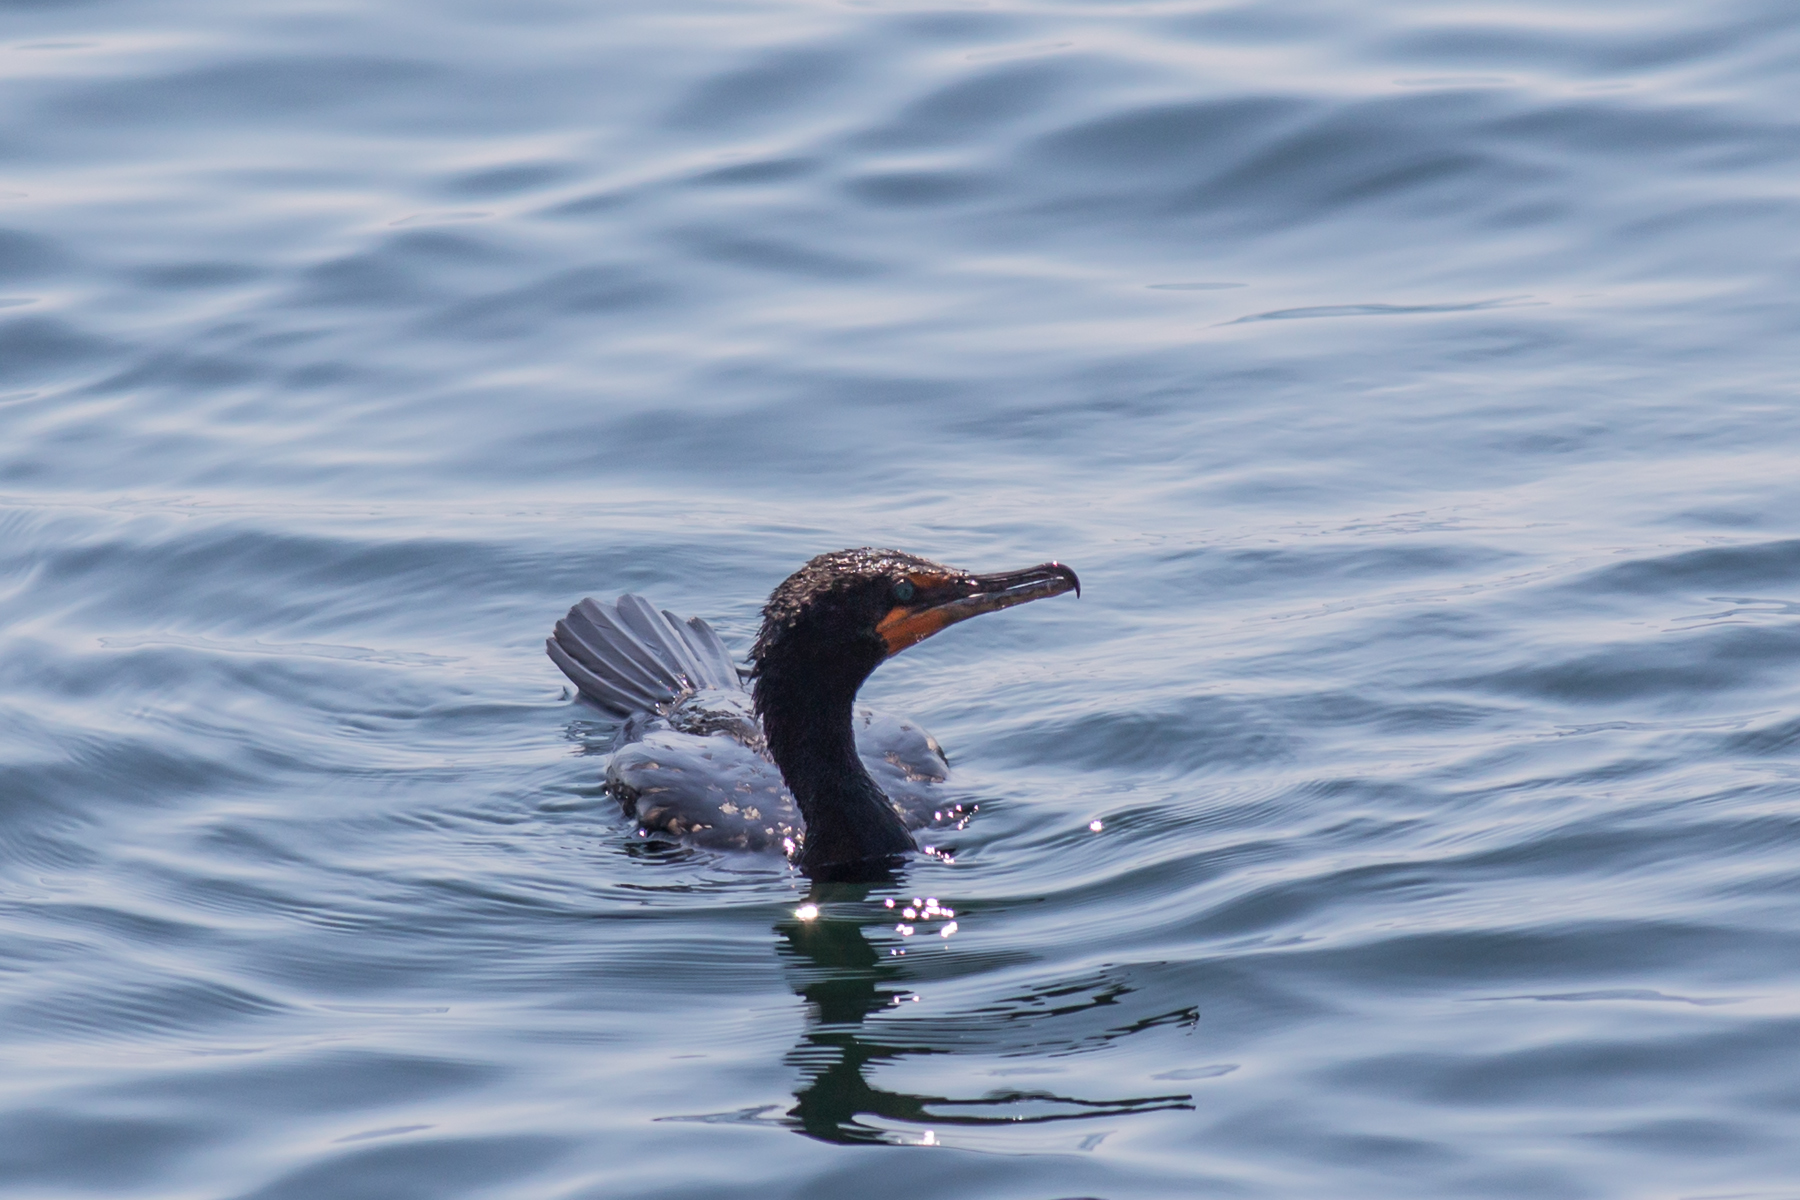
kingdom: Animalia
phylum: Chordata
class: Aves
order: Suliformes
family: Phalacrocoracidae
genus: Phalacrocorax
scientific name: Phalacrocorax auritus
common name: Double-crested cormorant
